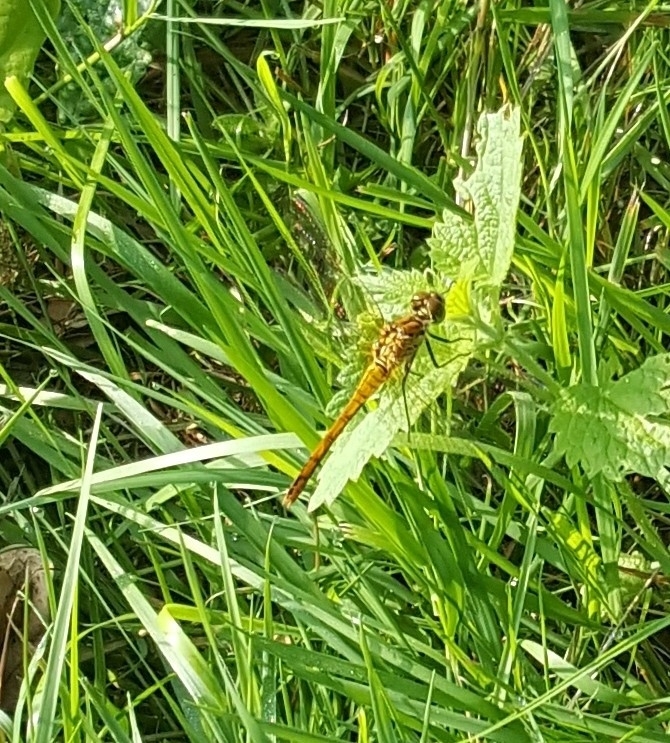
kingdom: Animalia
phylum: Arthropoda
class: Insecta
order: Odonata
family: Libellulidae
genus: Sympetrum
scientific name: Sympetrum sanguineum
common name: Ruddy darter
